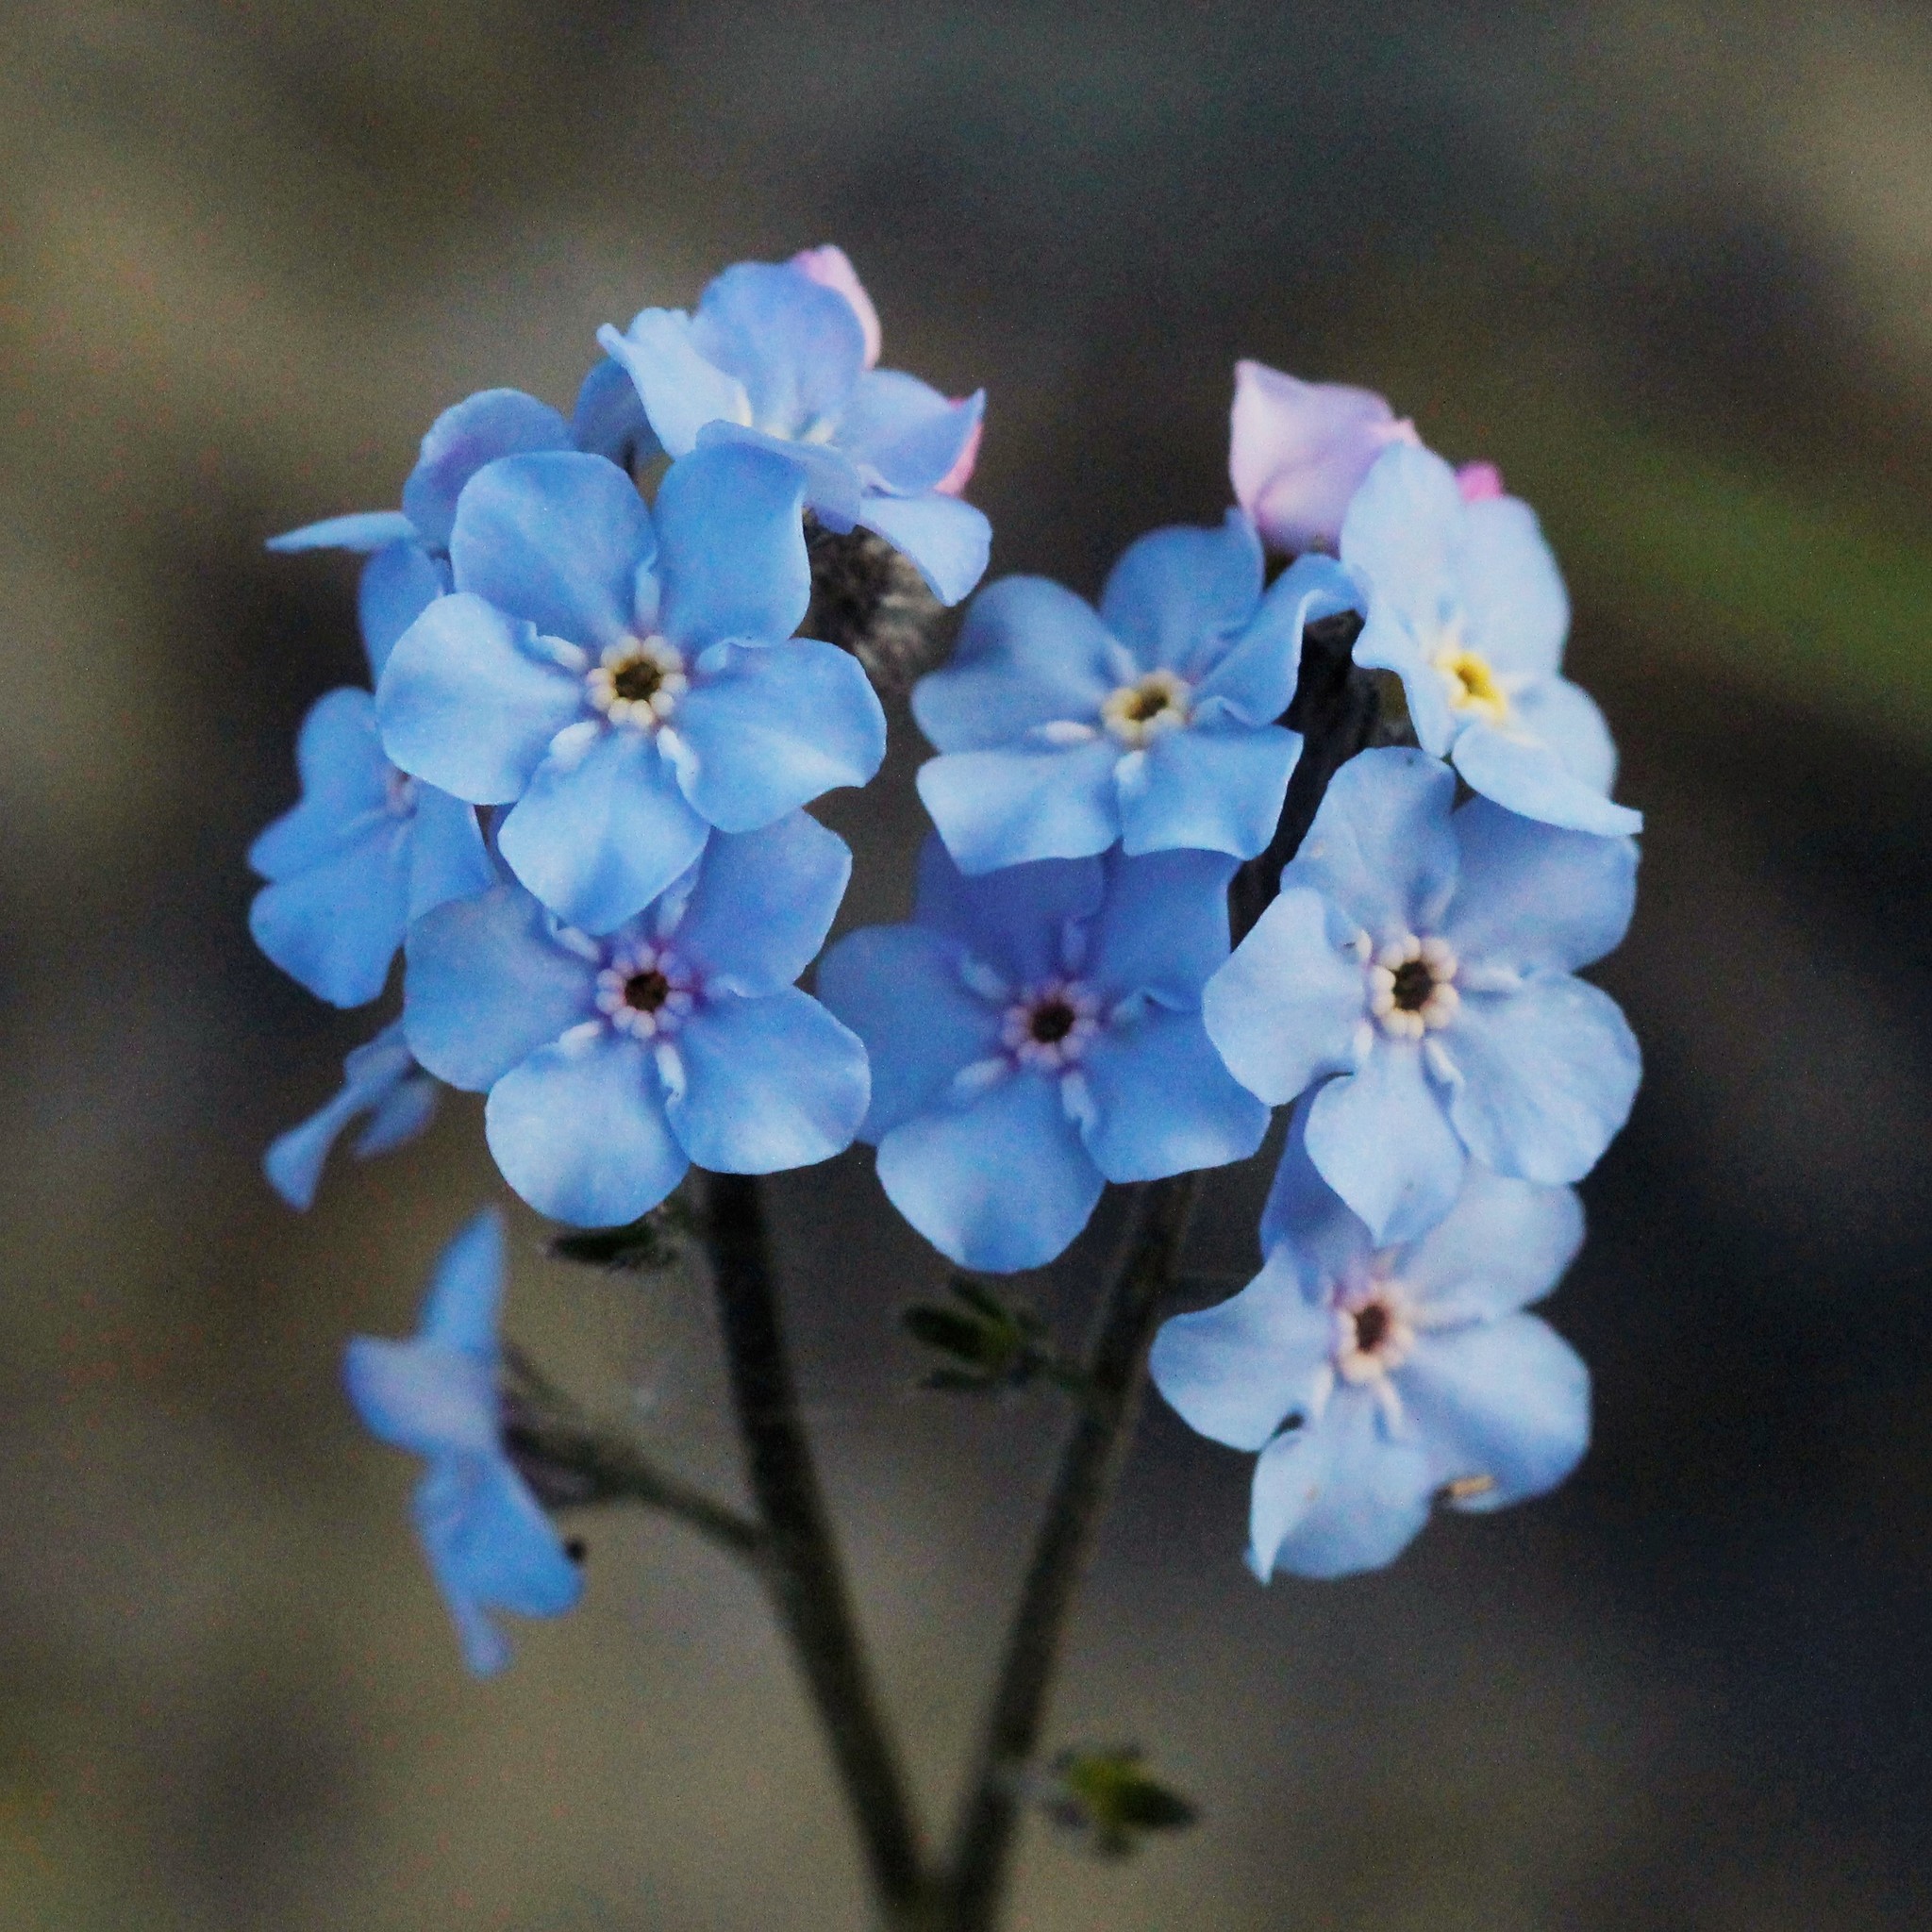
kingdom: Plantae
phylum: Tracheophyta
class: Magnoliopsida
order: Boraginales
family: Boraginaceae
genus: Myosotis
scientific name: Myosotis asiatica
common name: Asian forget-me-not
